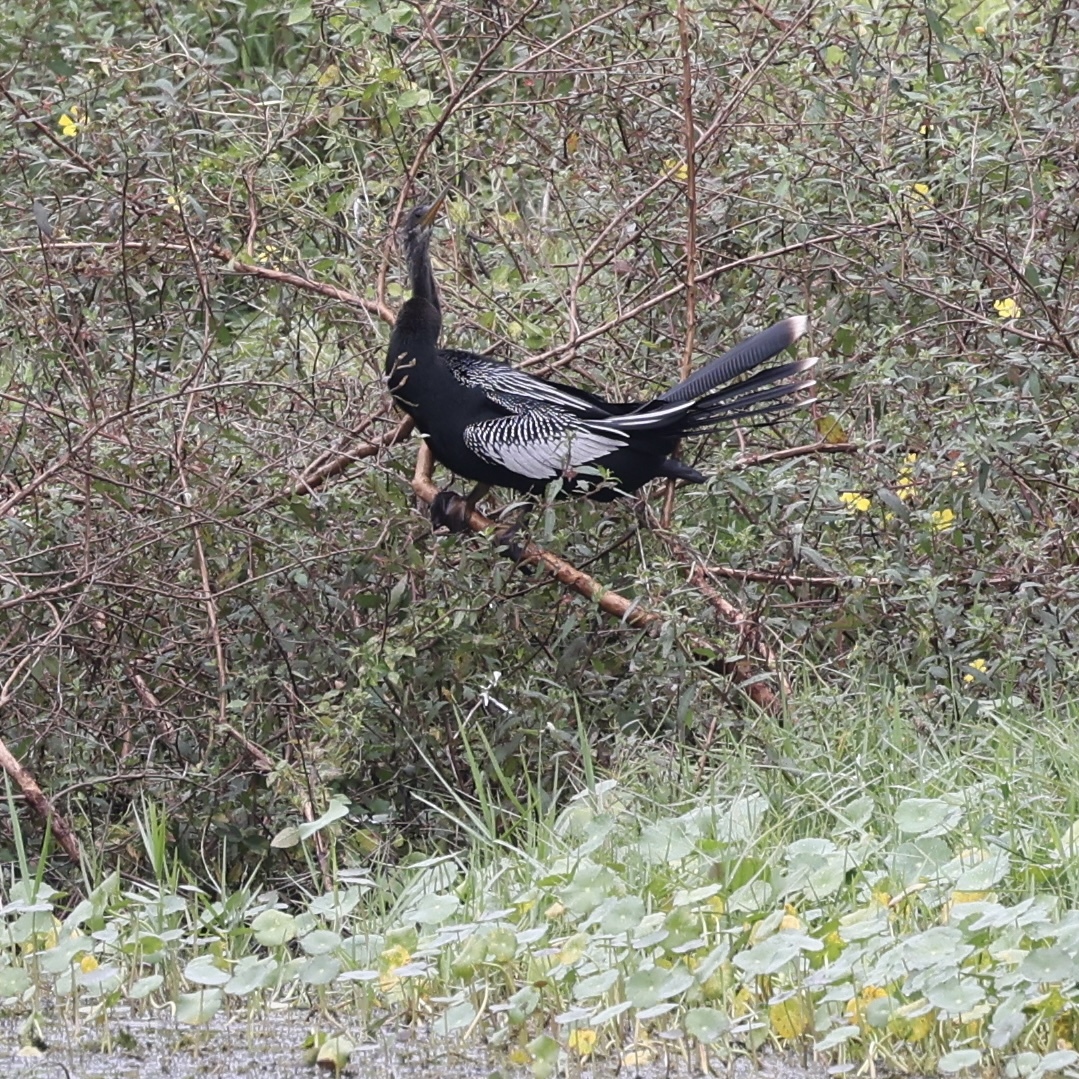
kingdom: Animalia
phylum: Chordata
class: Aves
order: Suliformes
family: Anhingidae
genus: Anhinga
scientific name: Anhinga anhinga
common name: Anhinga
